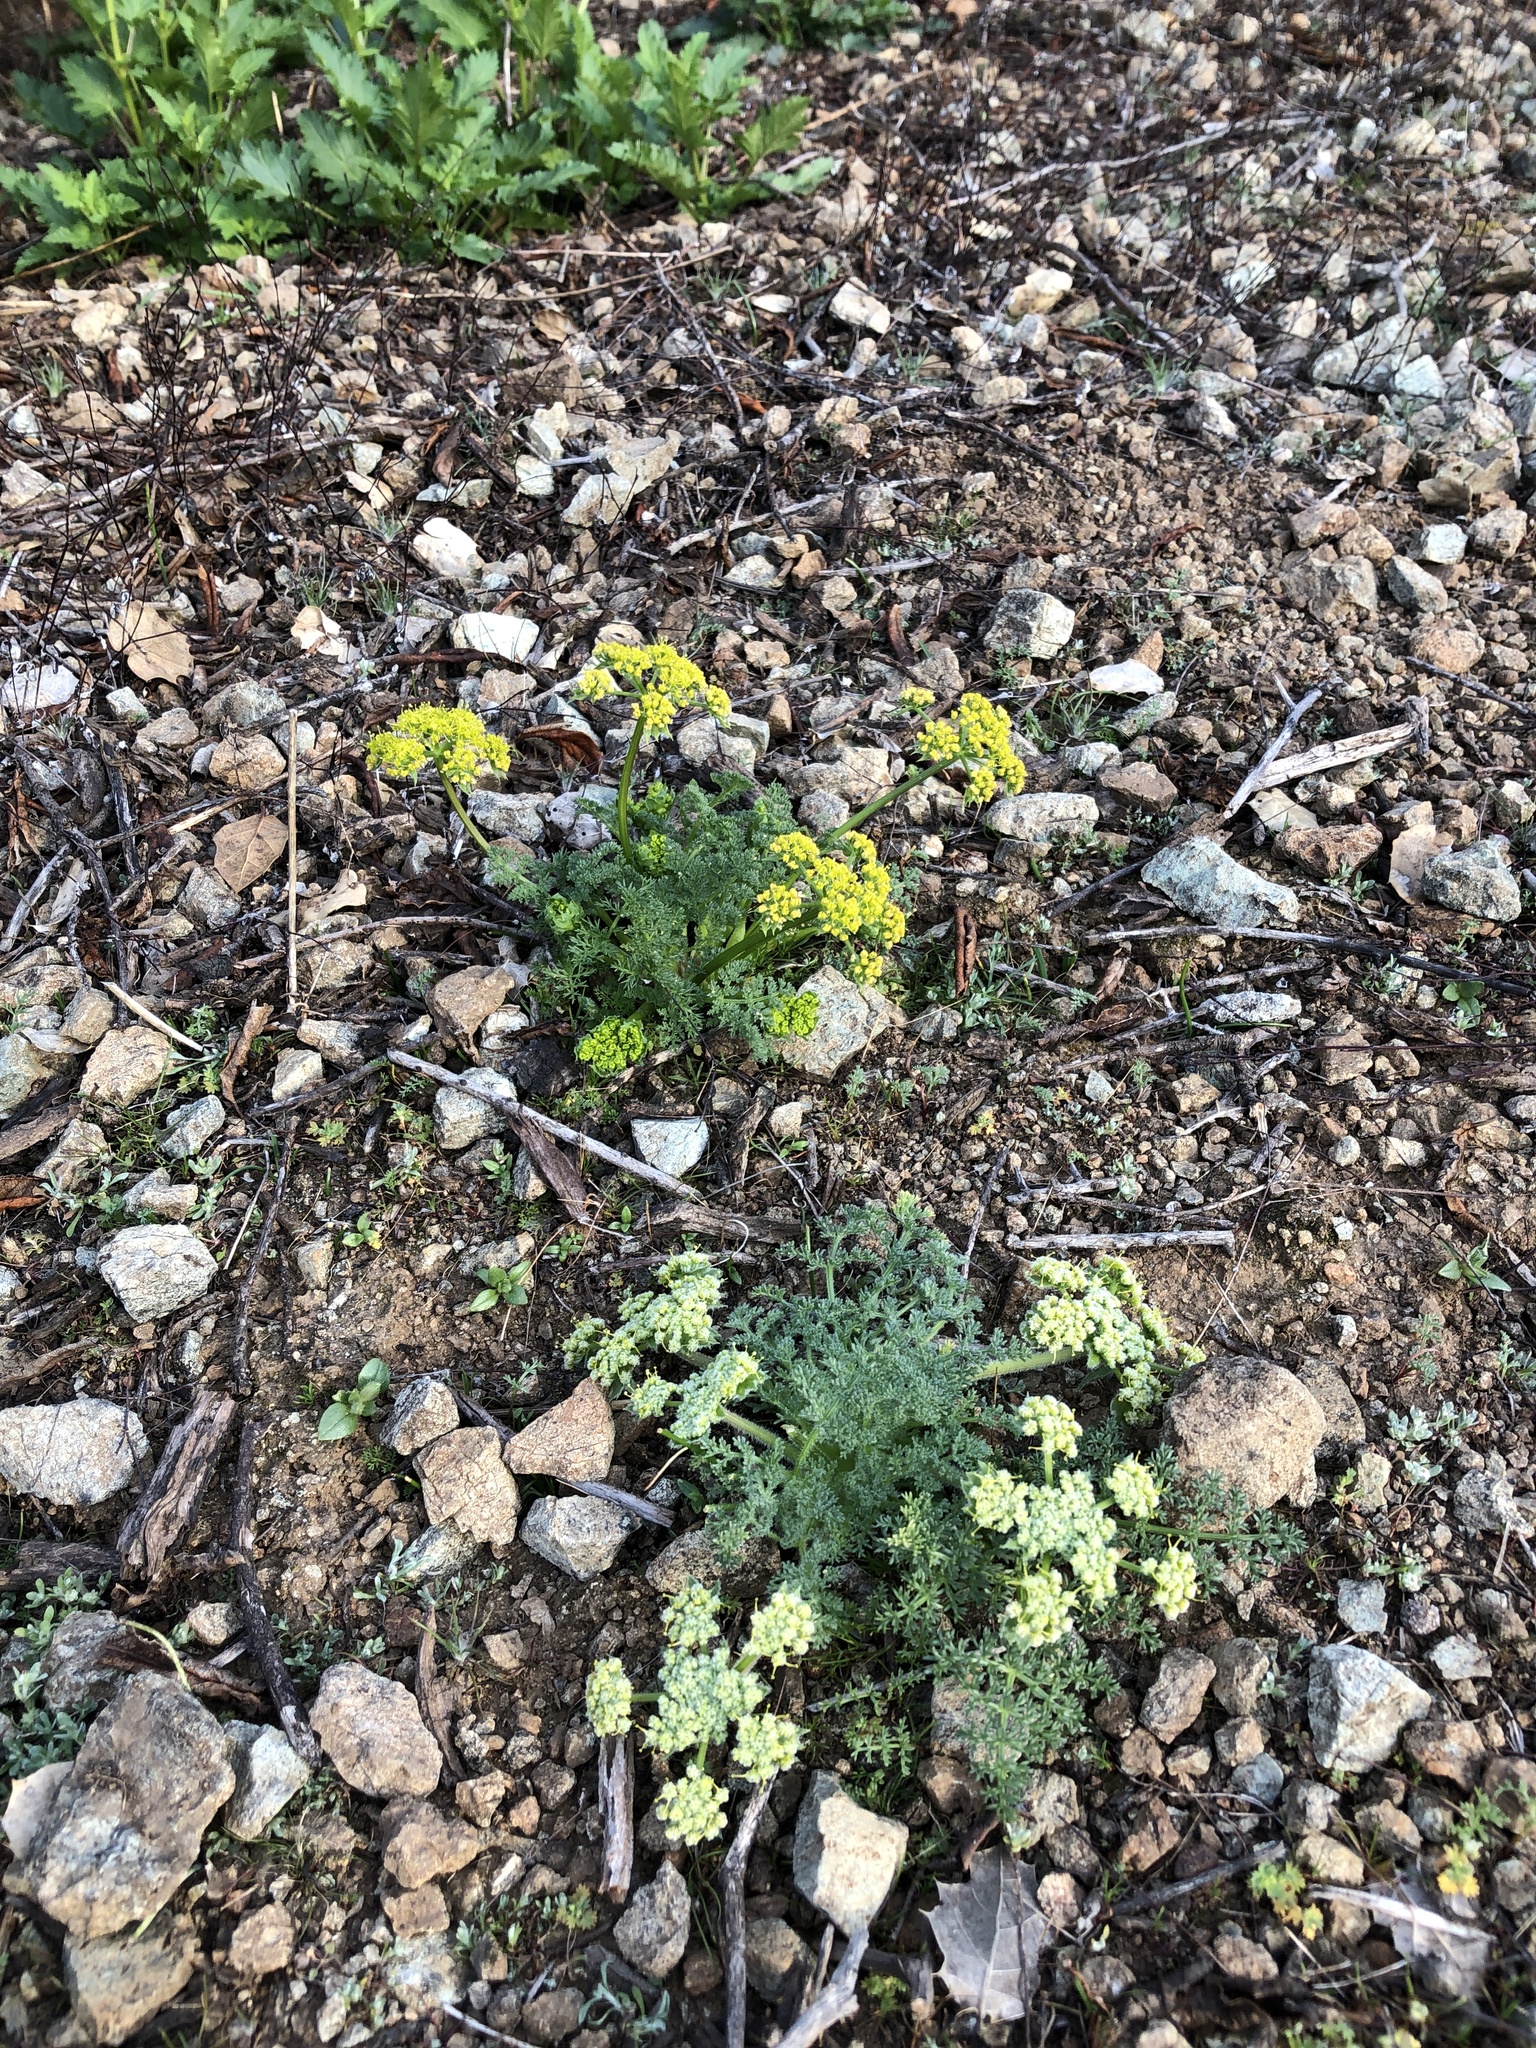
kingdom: Plantae
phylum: Tracheophyta
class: Magnoliopsida
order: Apiales
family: Apiaceae
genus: Lomatium
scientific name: Lomatium dasycarpum
